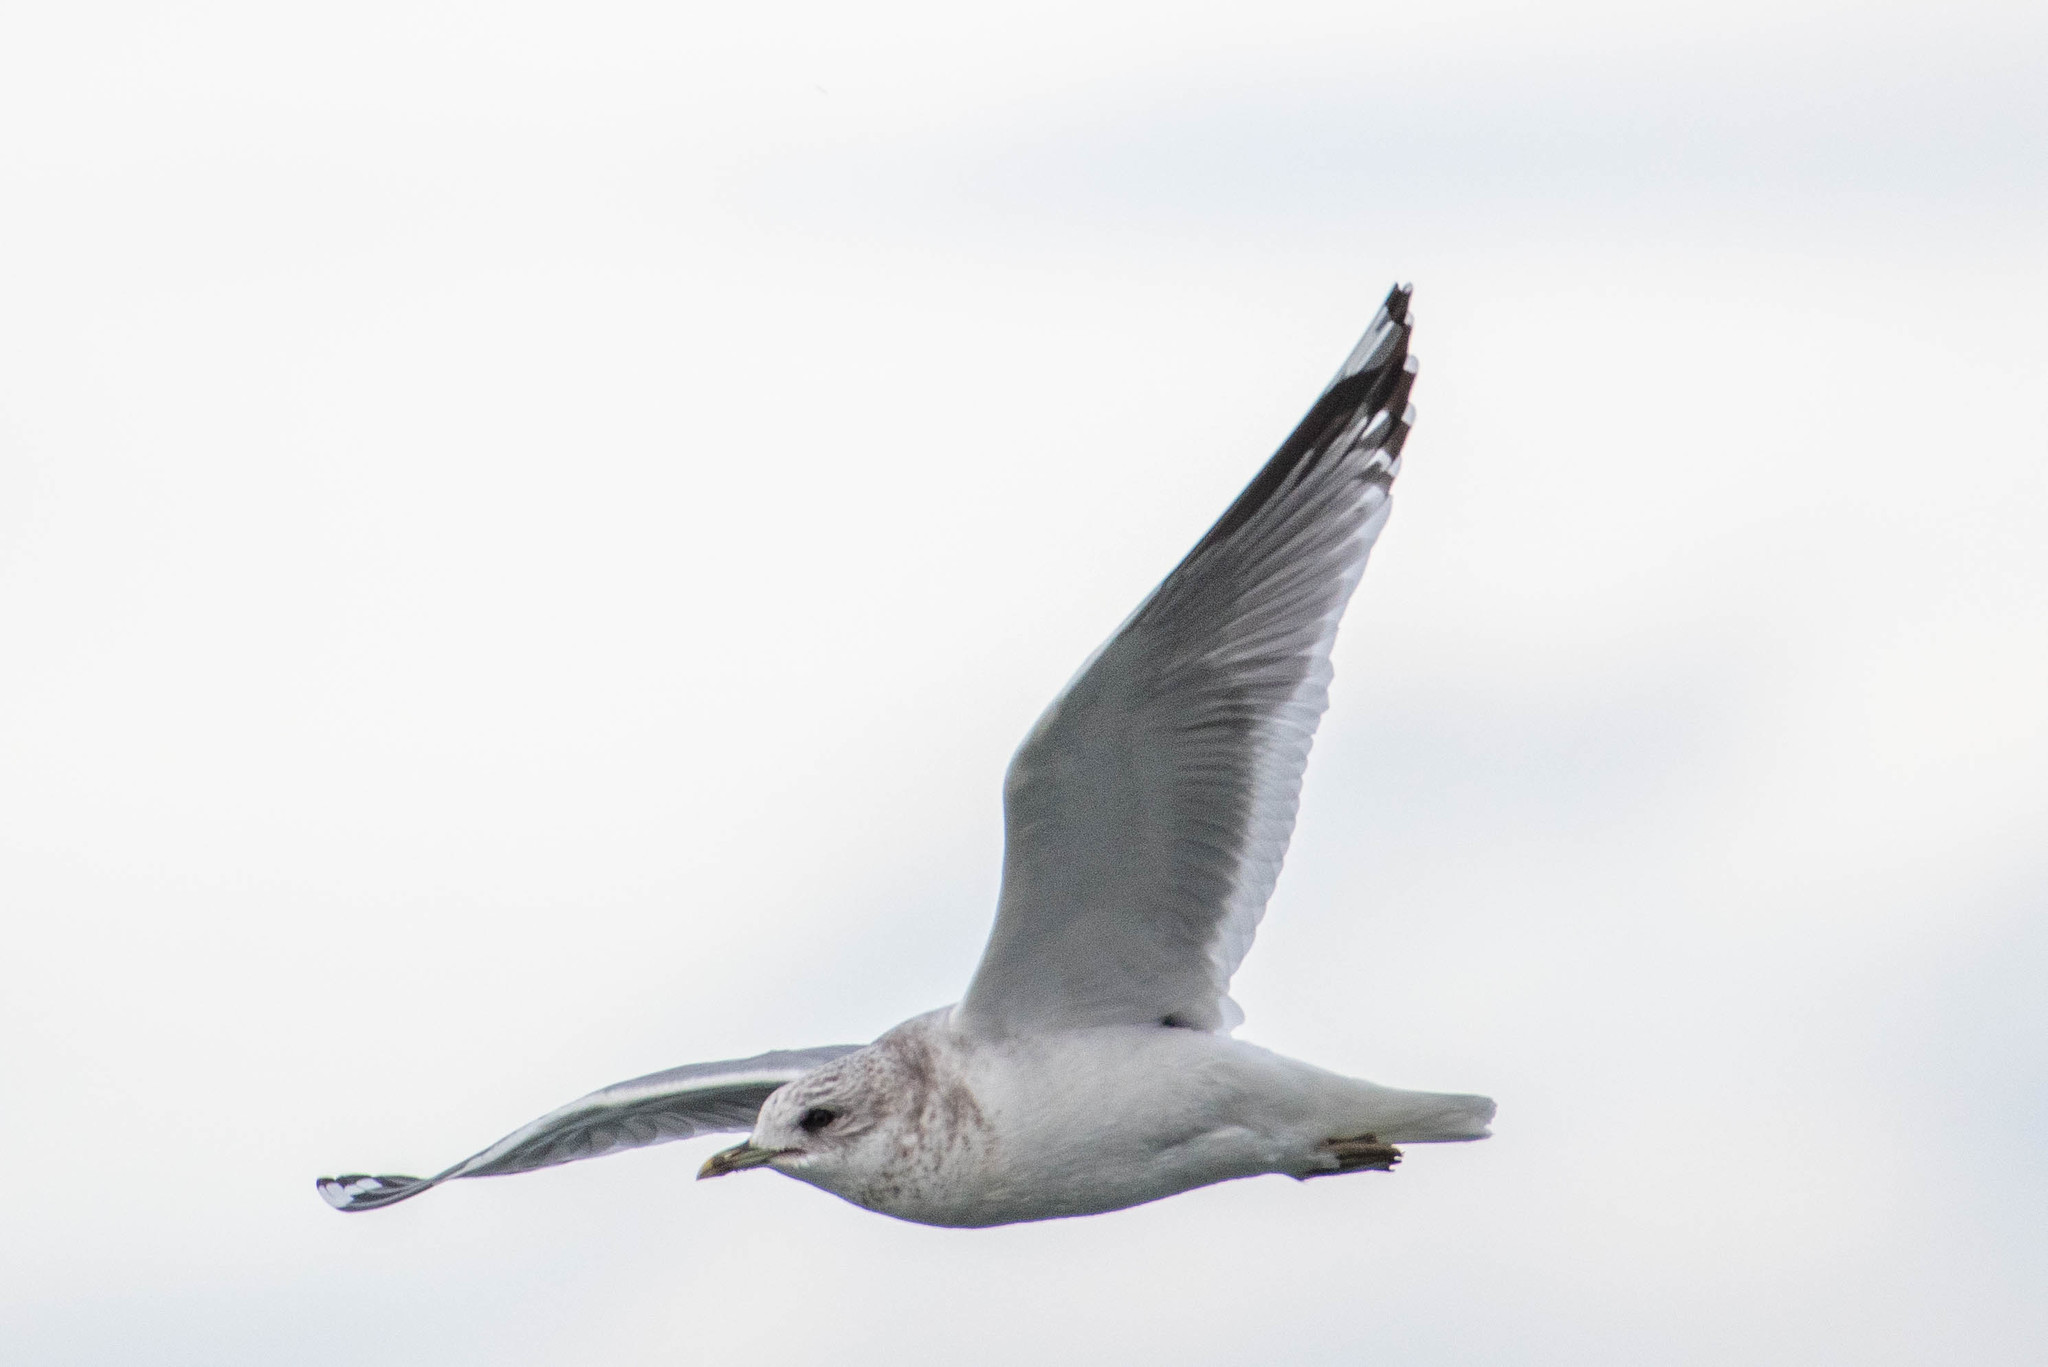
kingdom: Animalia
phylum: Chordata
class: Aves
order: Charadriiformes
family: Laridae
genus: Larus
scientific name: Larus brachyrhynchus
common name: Short-billed gull
